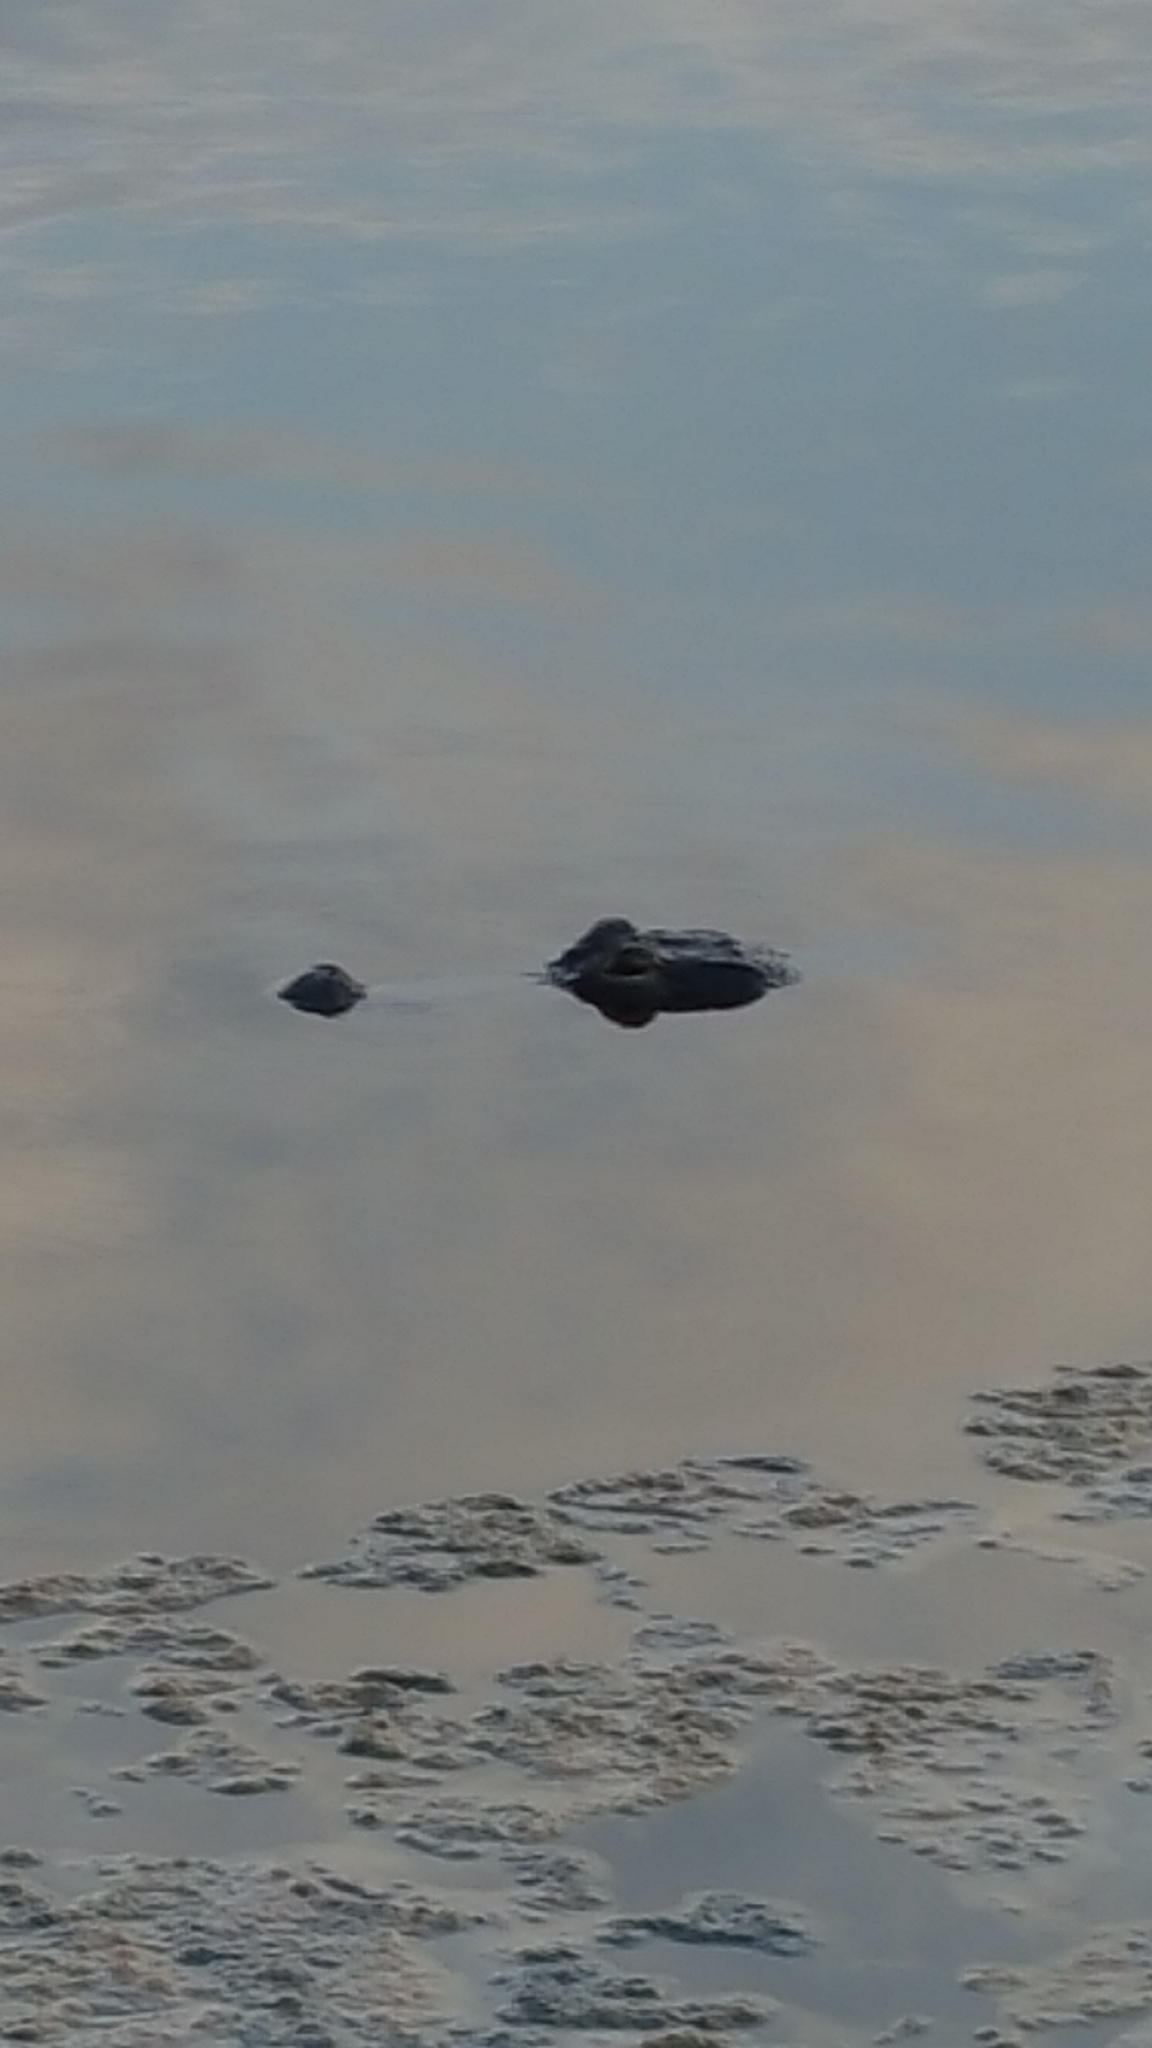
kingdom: Animalia
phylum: Chordata
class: Crocodylia
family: Alligatoridae
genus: Alligator
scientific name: Alligator mississippiensis
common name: American alligator
